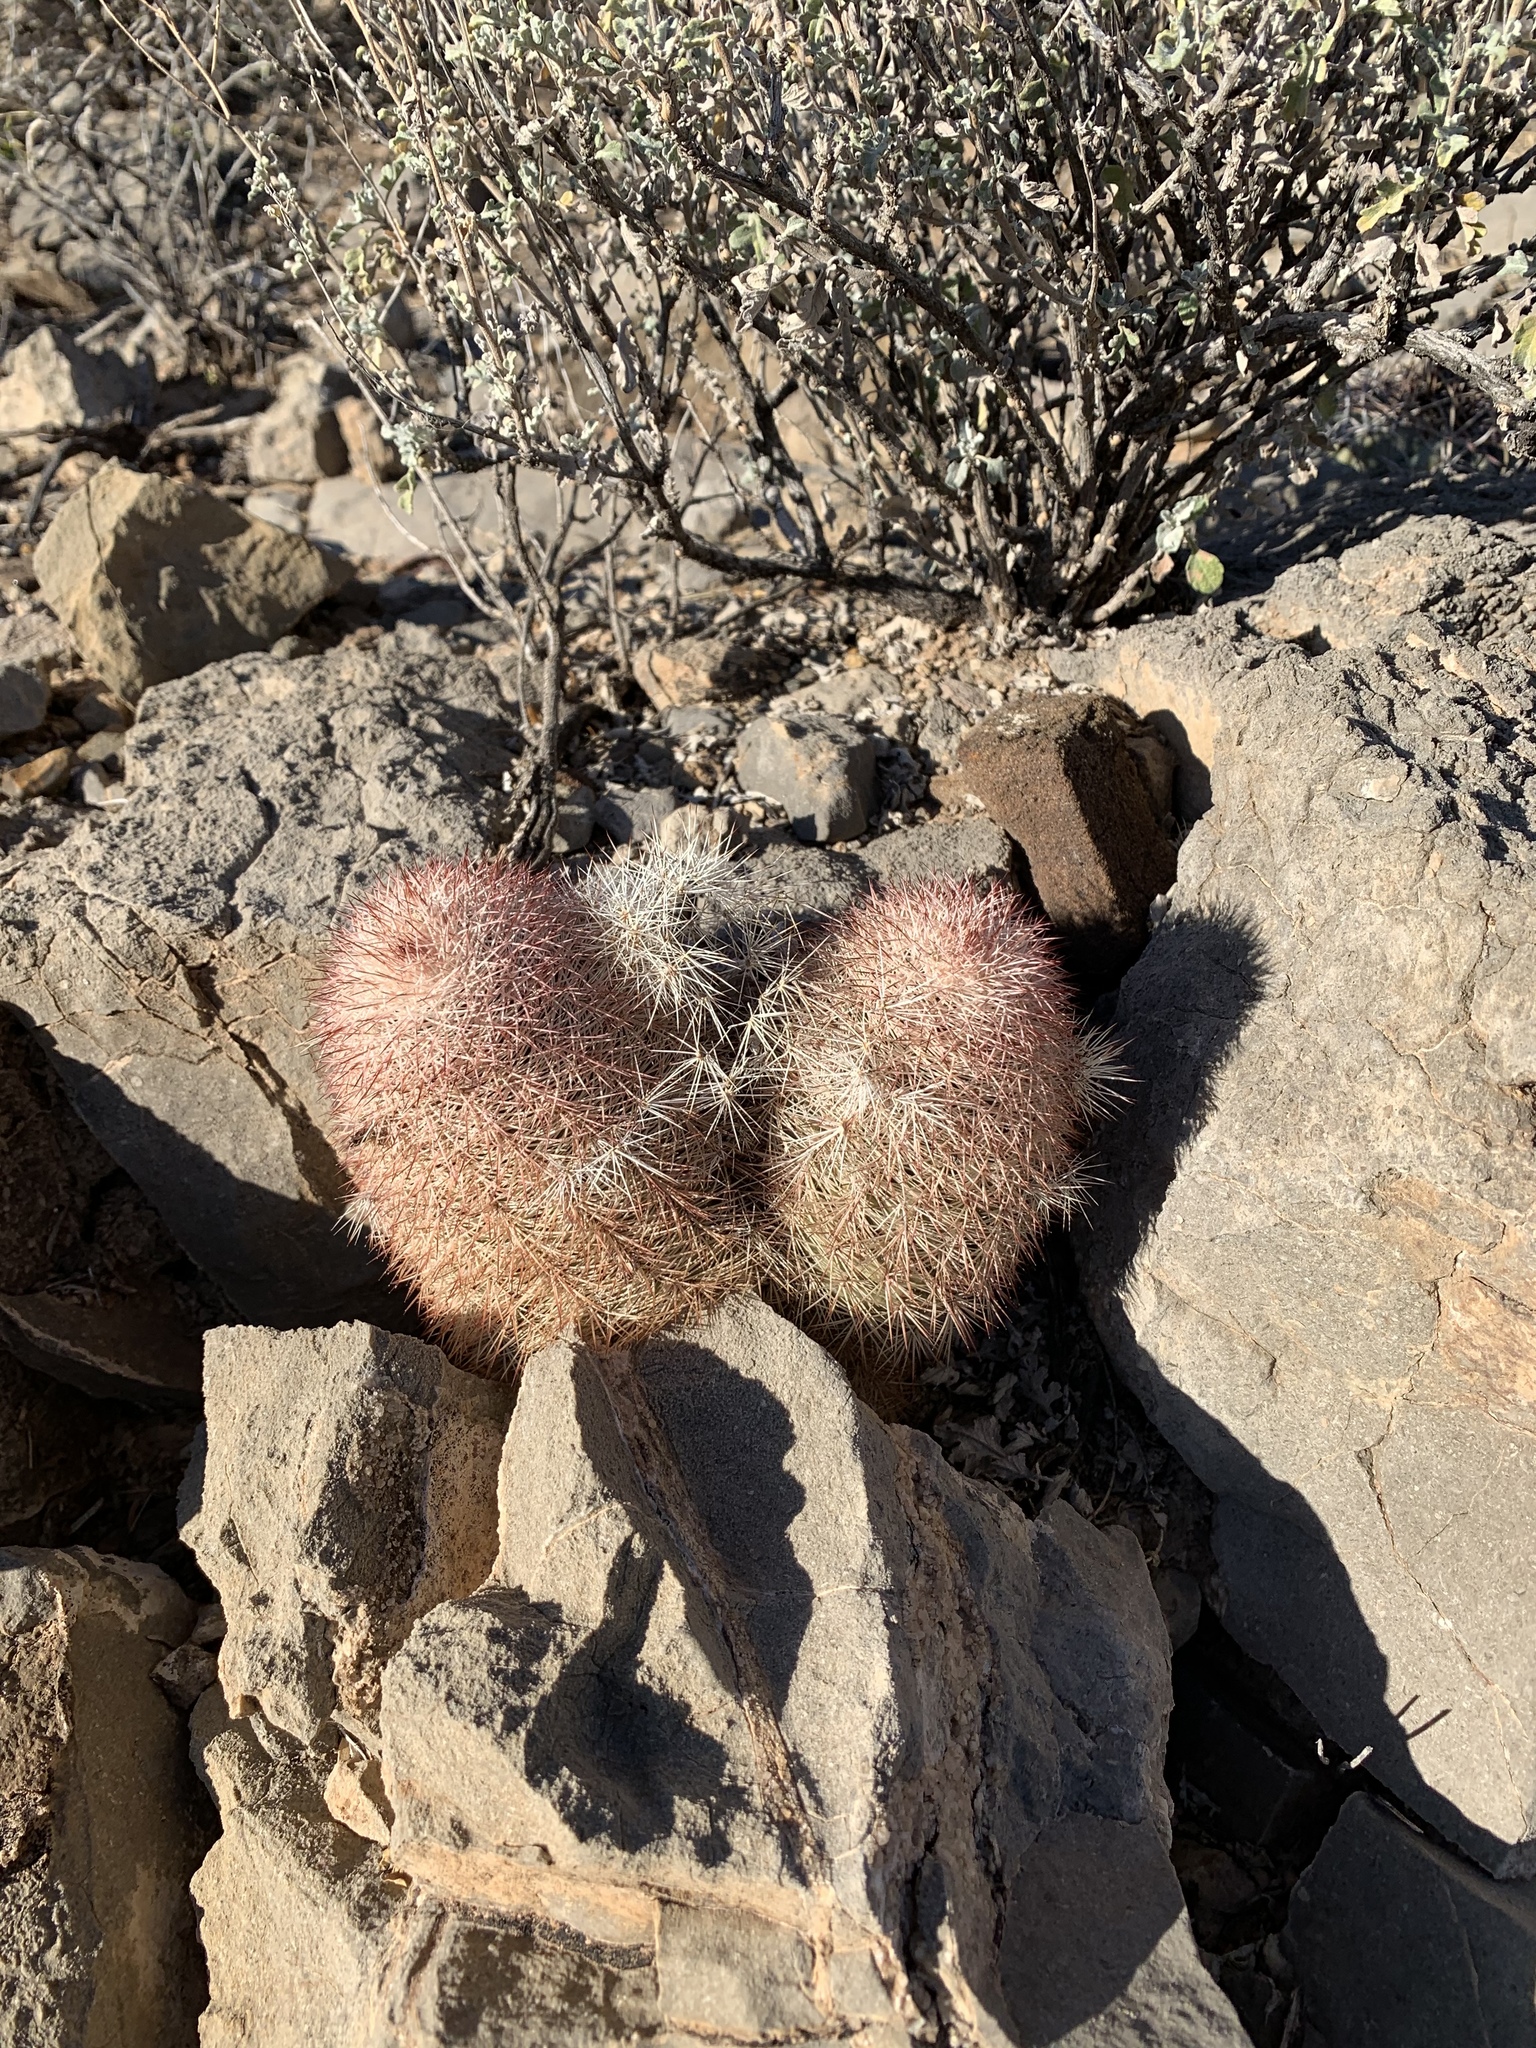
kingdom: Plantae
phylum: Tracheophyta
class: Magnoliopsida
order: Caryophyllales
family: Cactaceae
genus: Echinocereus
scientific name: Echinocereus dasyacanthus
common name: Spiny hedgehog cactus
